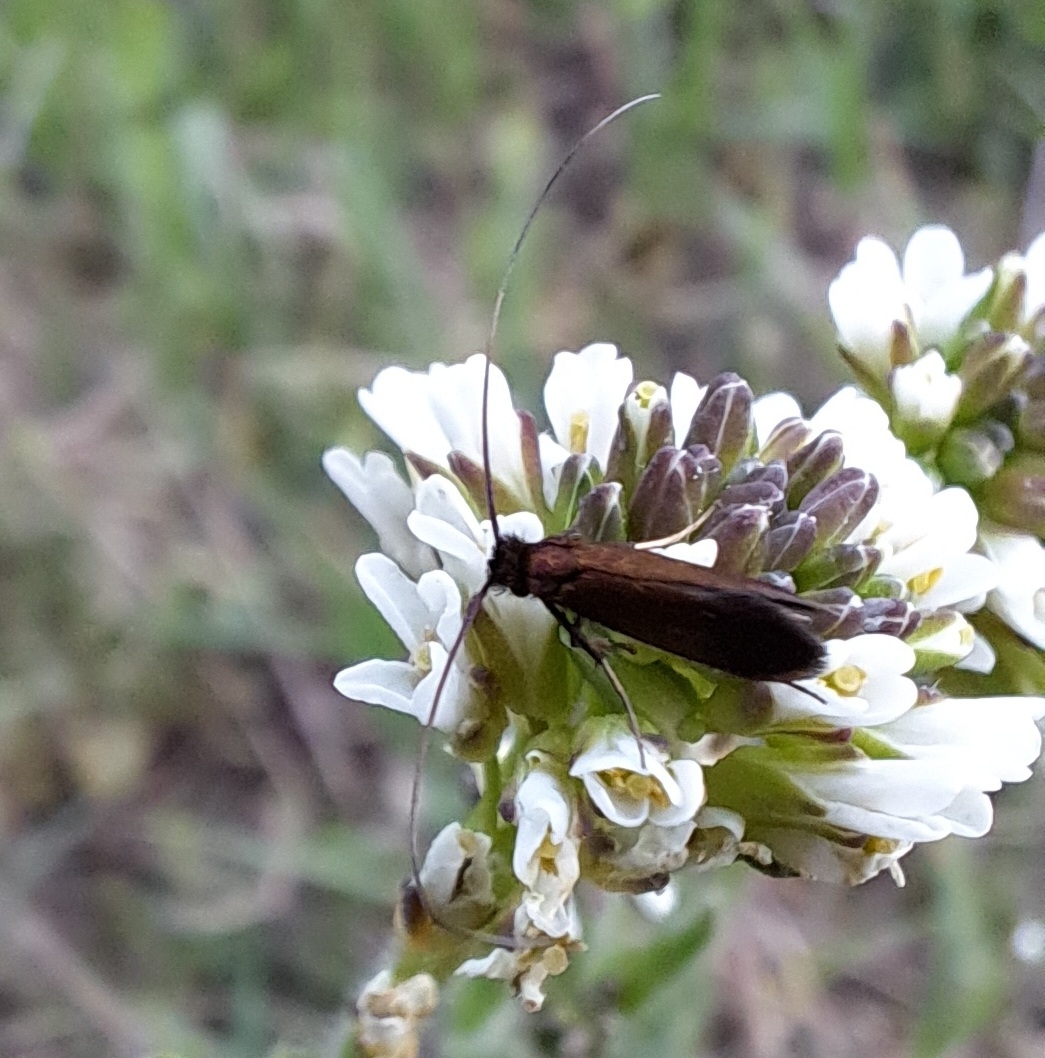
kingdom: Animalia
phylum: Arthropoda
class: Insecta
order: Lepidoptera
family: Adelidae
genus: Cauchas
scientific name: Cauchas rufimitrella
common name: Meadow long-horn
